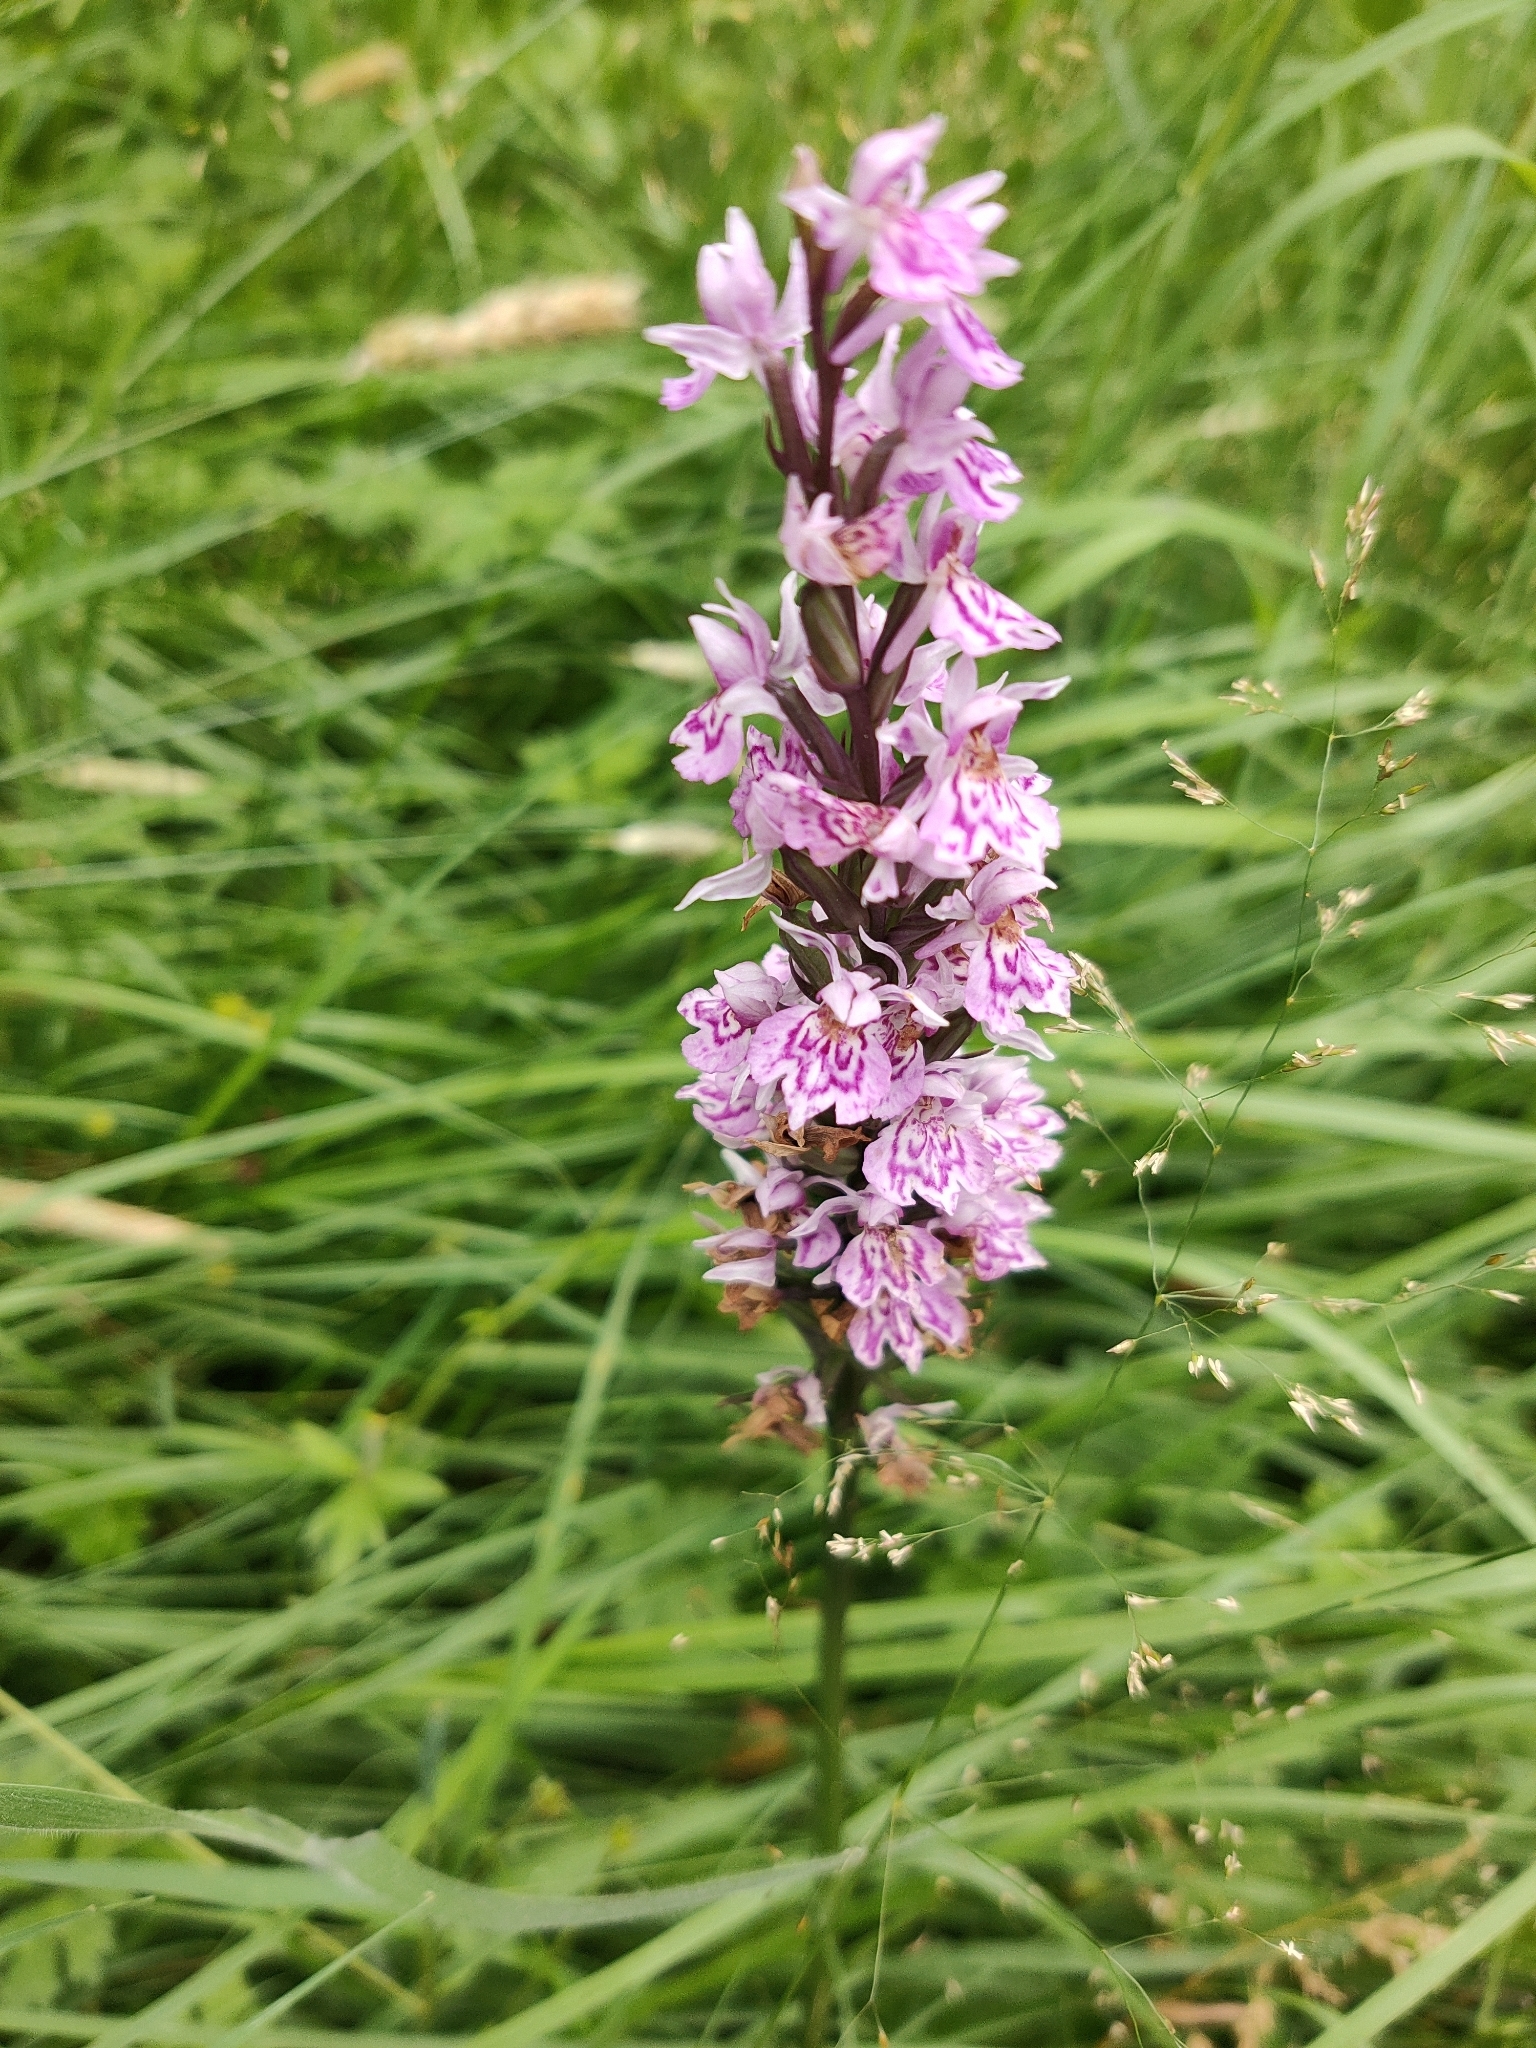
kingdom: Plantae
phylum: Tracheophyta
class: Liliopsida
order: Asparagales
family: Orchidaceae
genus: Dactylorhiza
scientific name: Dactylorhiza maculata
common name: Heath spotted-orchid
